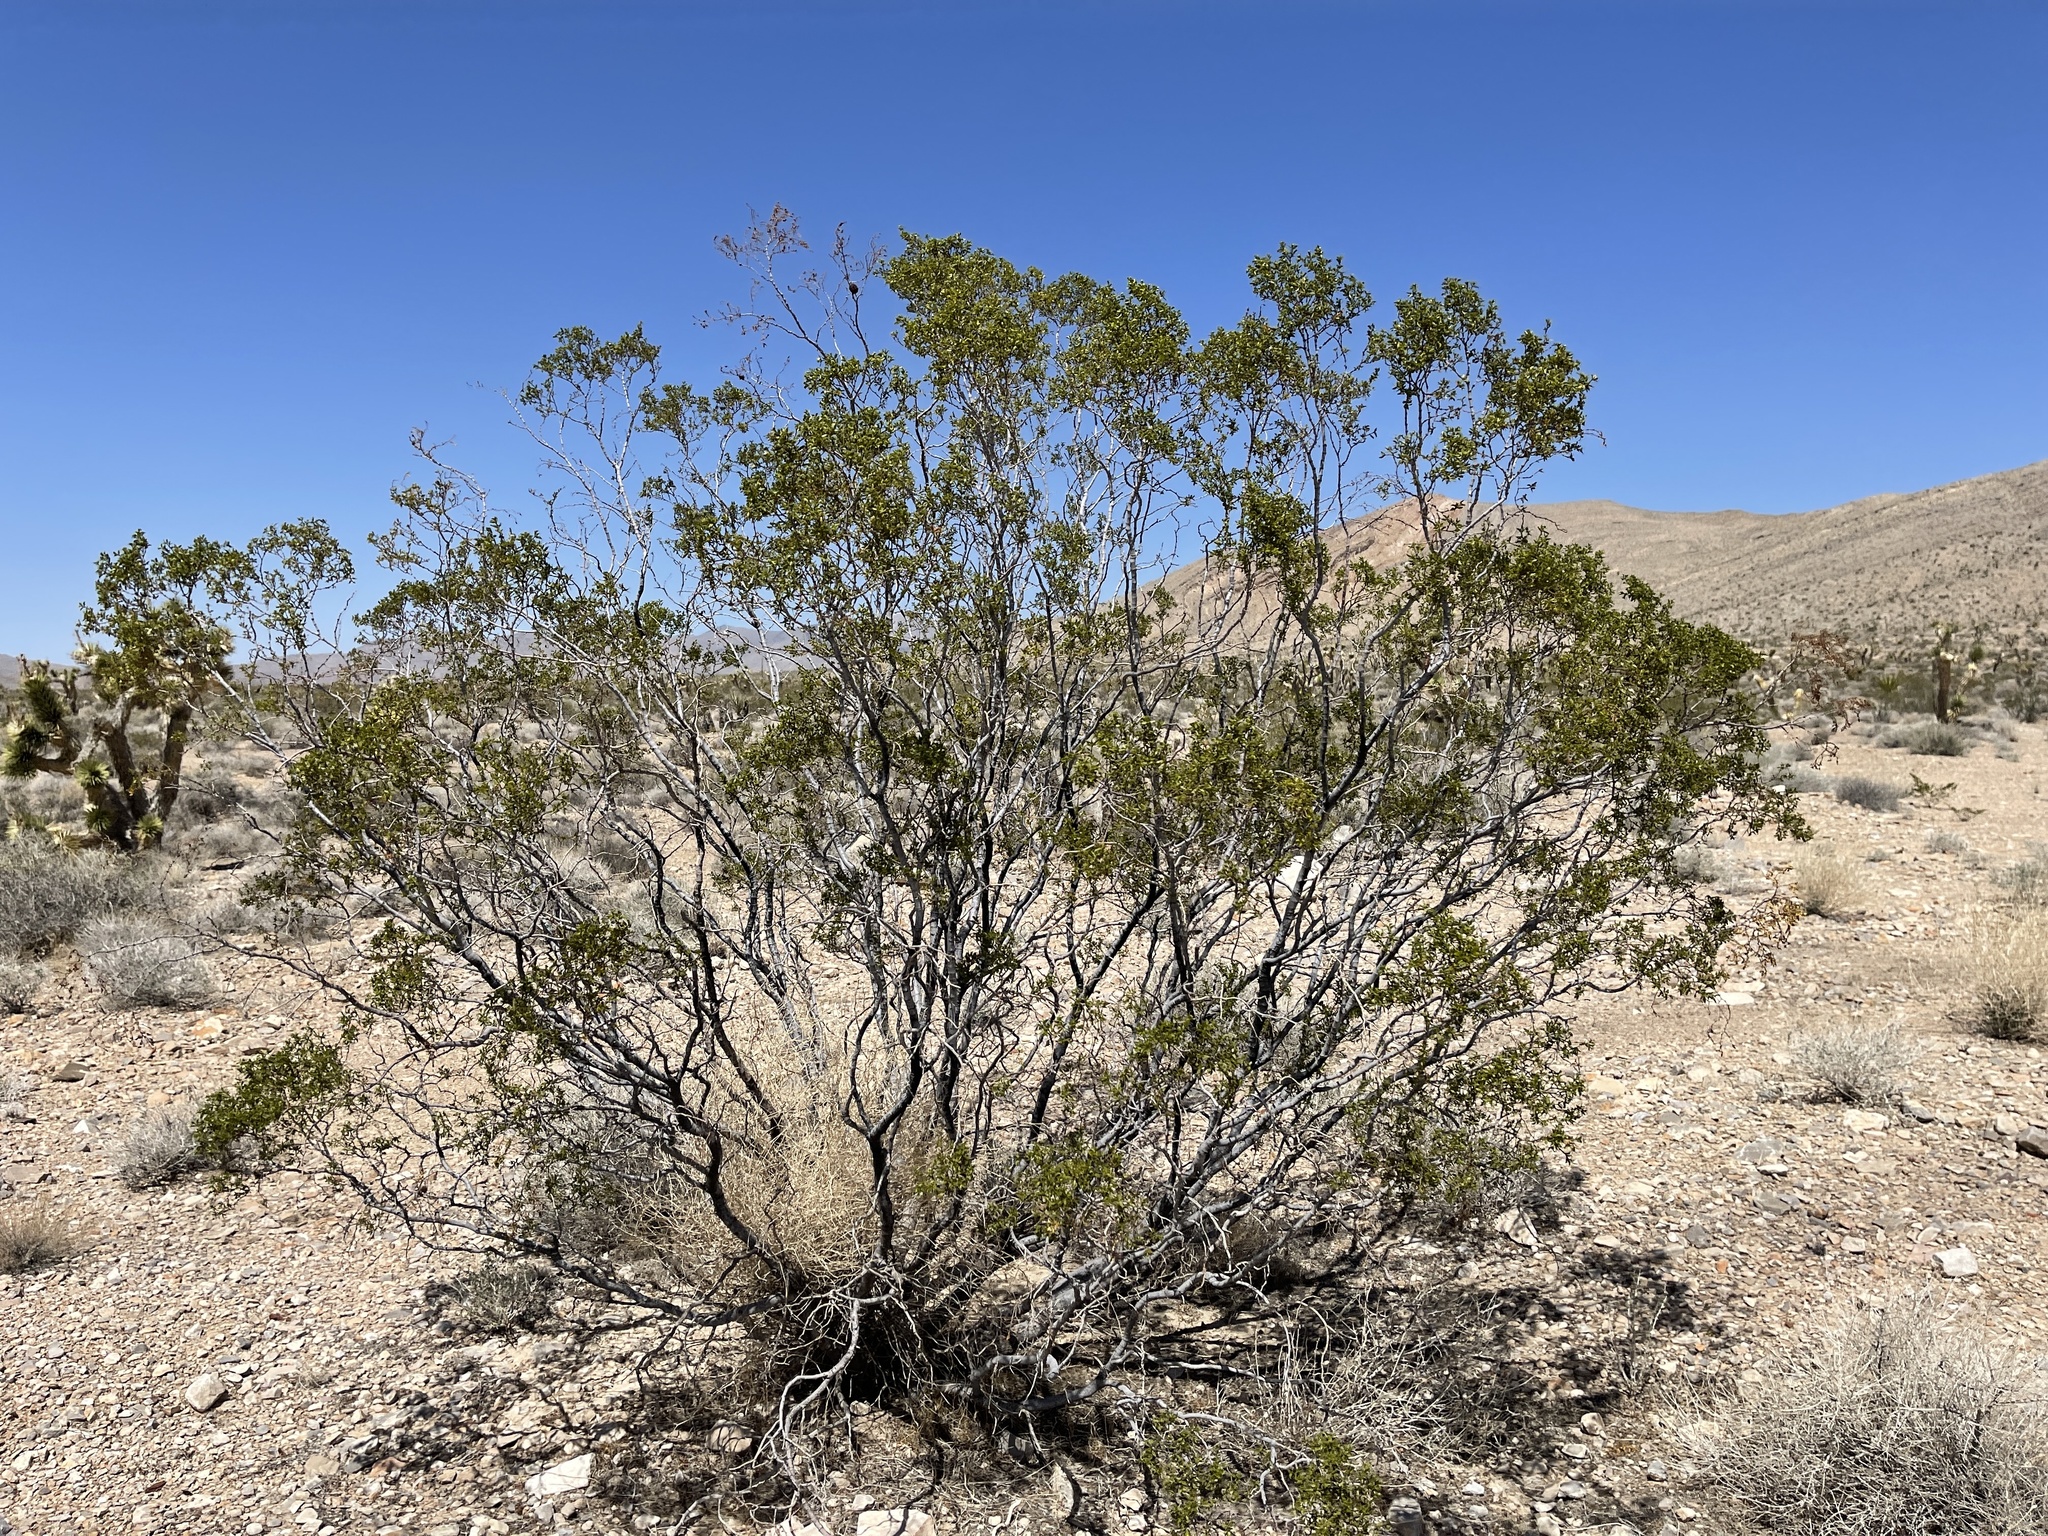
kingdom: Plantae
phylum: Tracheophyta
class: Magnoliopsida
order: Zygophyllales
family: Zygophyllaceae
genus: Larrea
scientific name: Larrea tridentata
